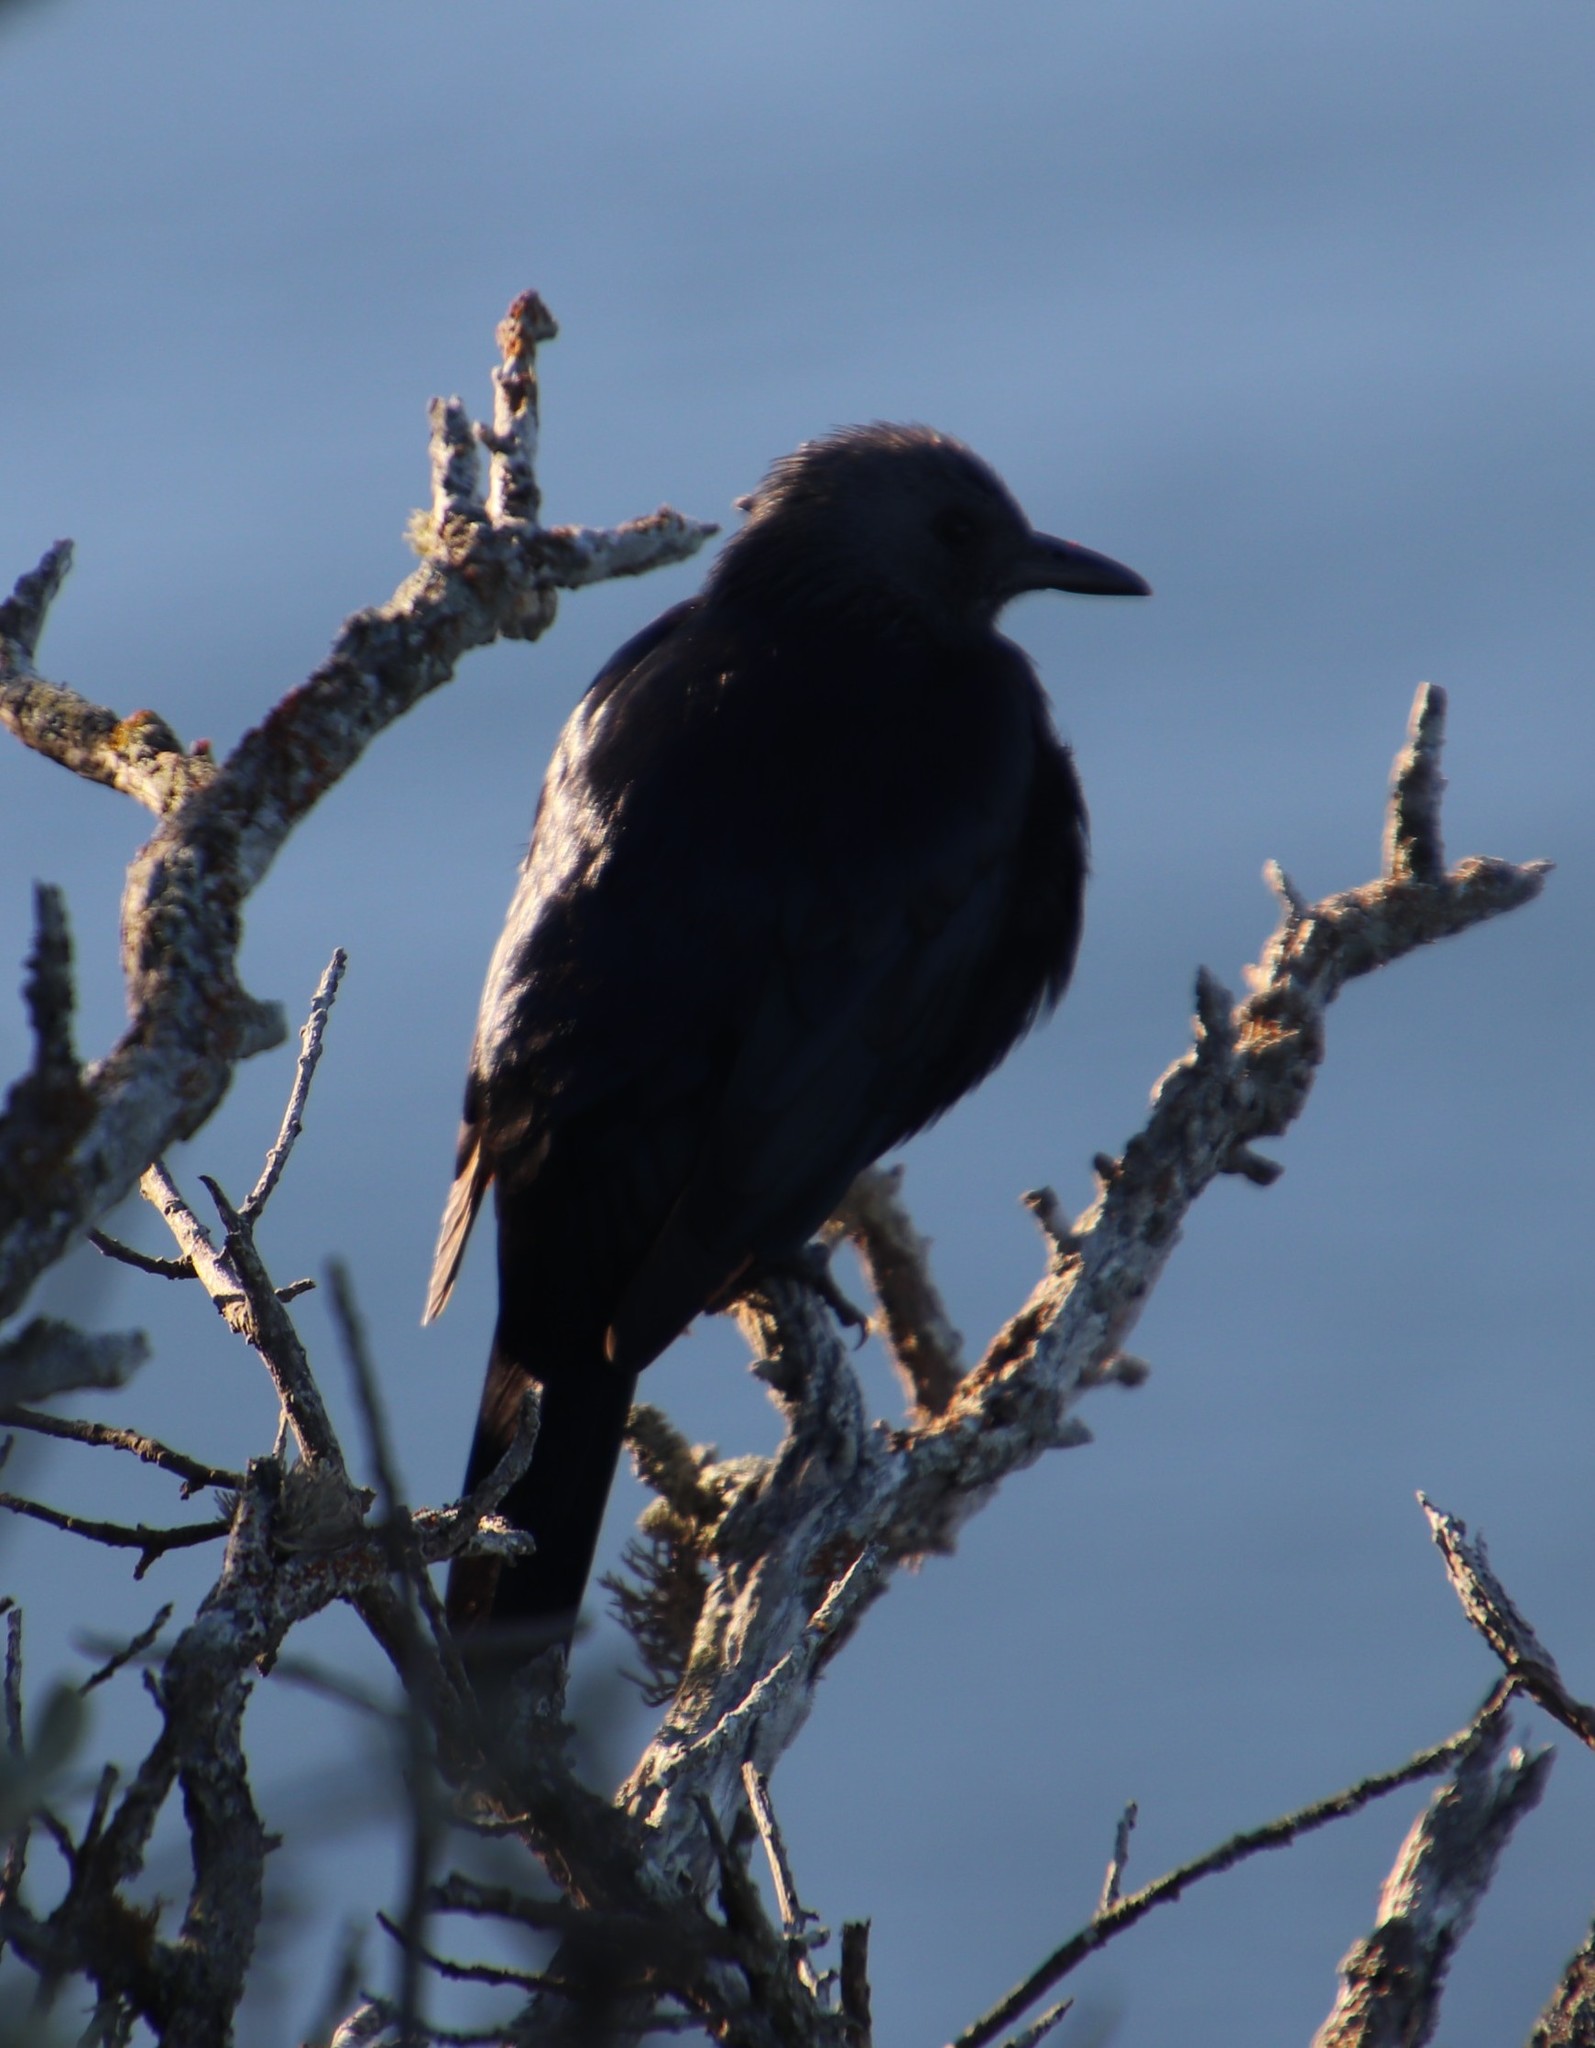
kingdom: Animalia
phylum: Chordata
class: Aves
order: Passeriformes
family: Sturnidae
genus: Onychognathus
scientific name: Onychognathus morio
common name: Red-winged starling
